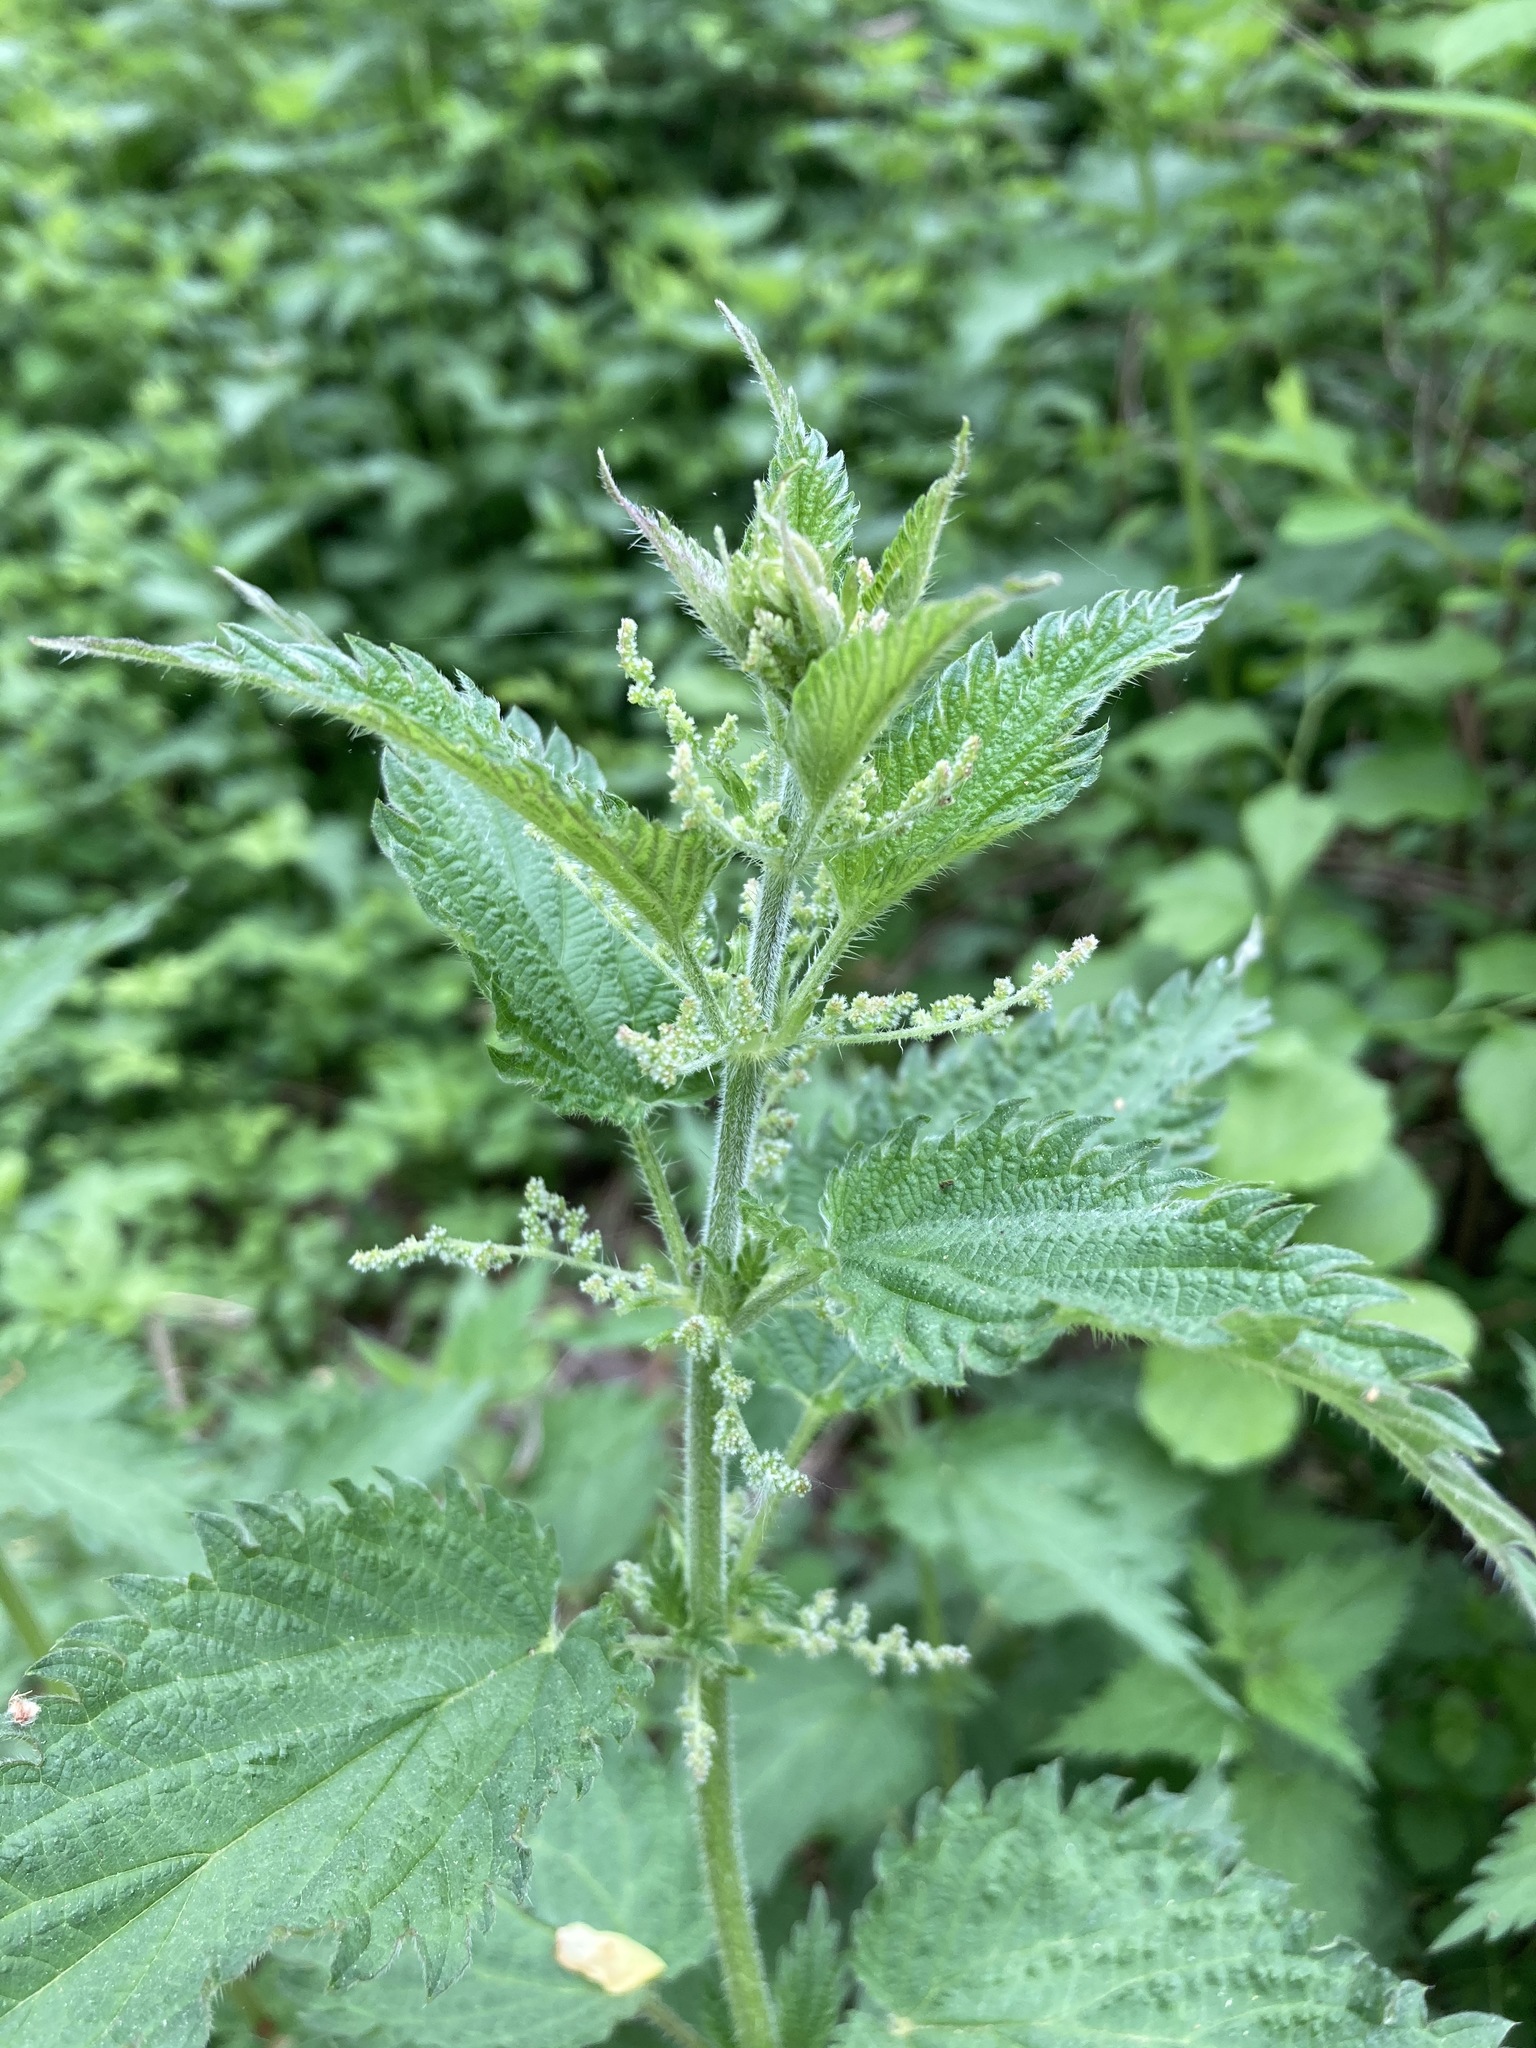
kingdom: Plantae
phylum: Tracheophyta
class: Magnoliopsida
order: Rosales
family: Urticaceae
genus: Urtica
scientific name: Urtica dioica
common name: Common nettle
